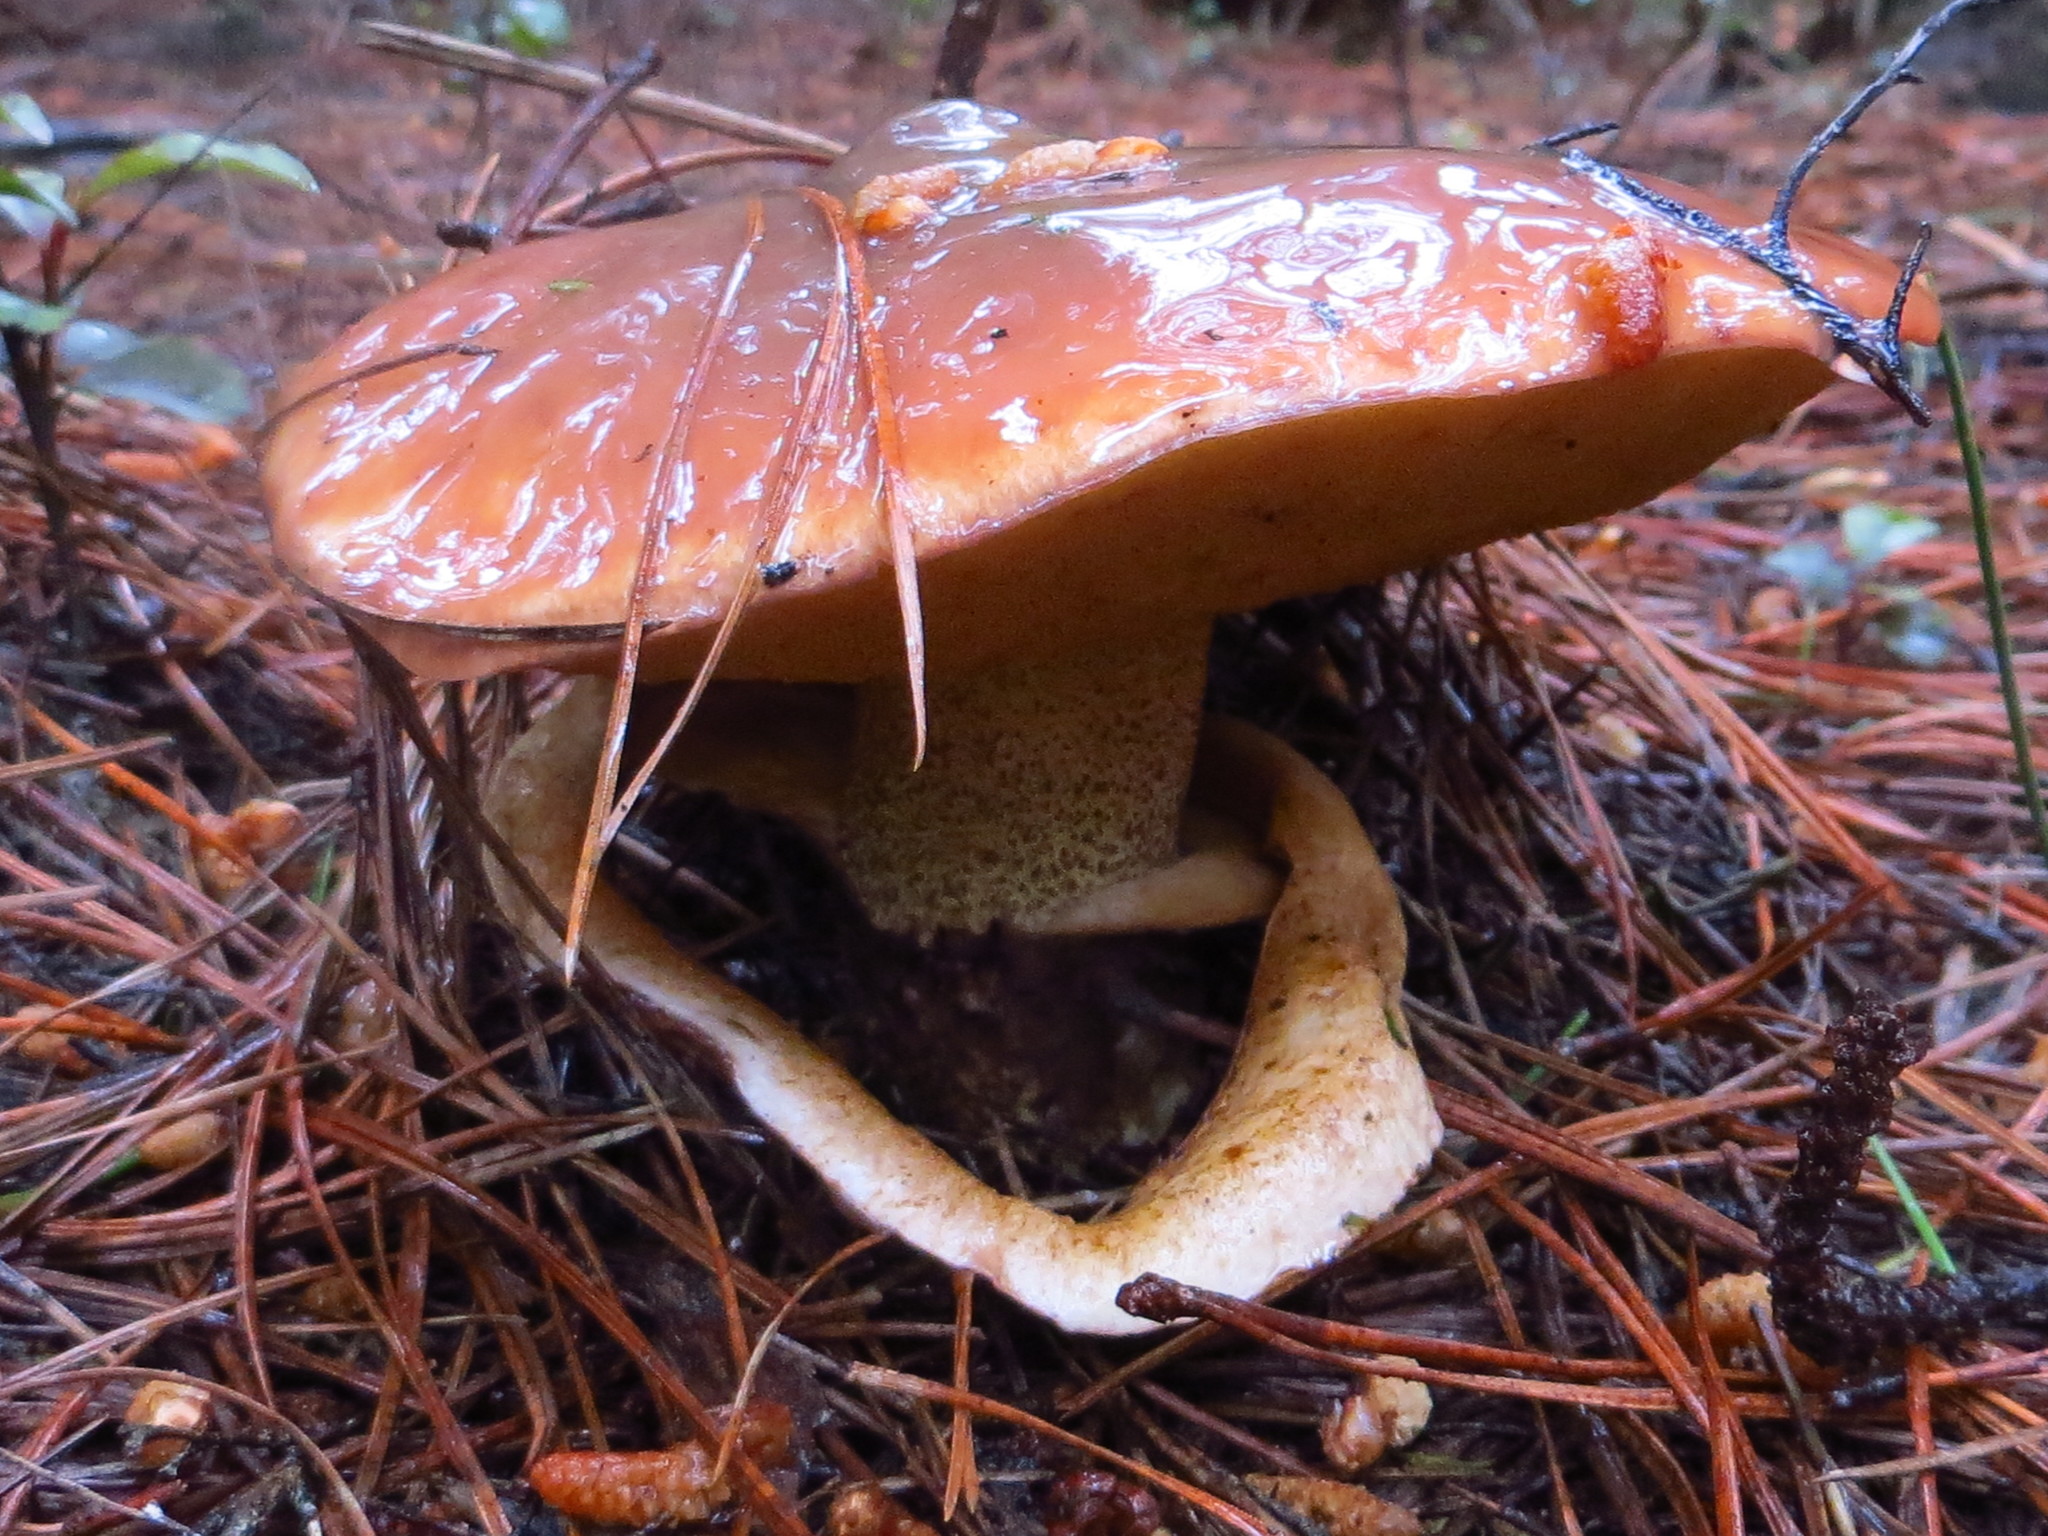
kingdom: Fungi
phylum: Basidiomycota
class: Agaricomycetes
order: Boletales
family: Suillaceae
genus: Suillus
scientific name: Suillus luteus
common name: Slippery jack
